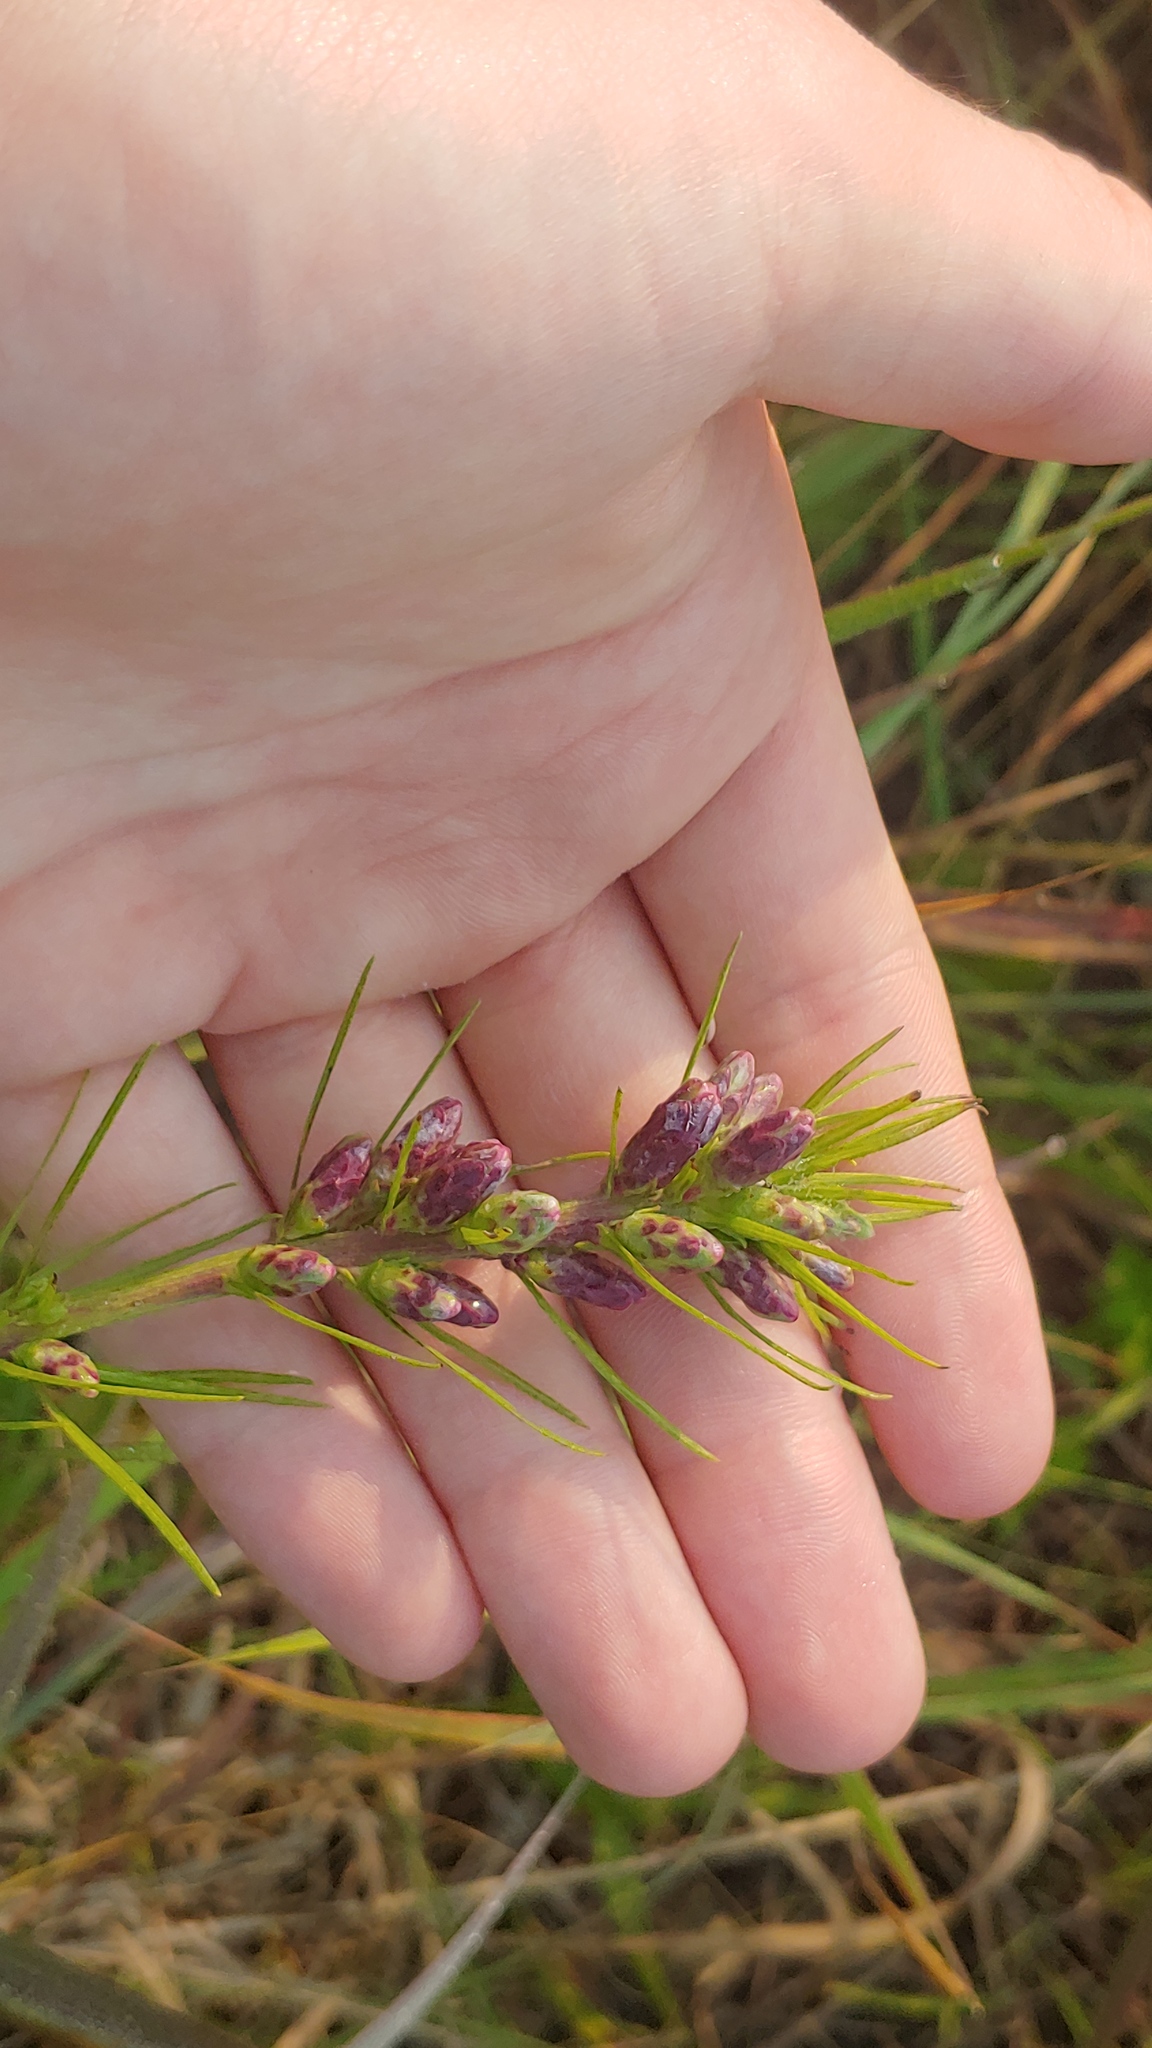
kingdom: Plantae
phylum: Tracheophyta
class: Magnoliopsida
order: Asterales
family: Asteraceae
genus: Liatris
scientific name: Liatris spicata
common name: Florist gayfeather
